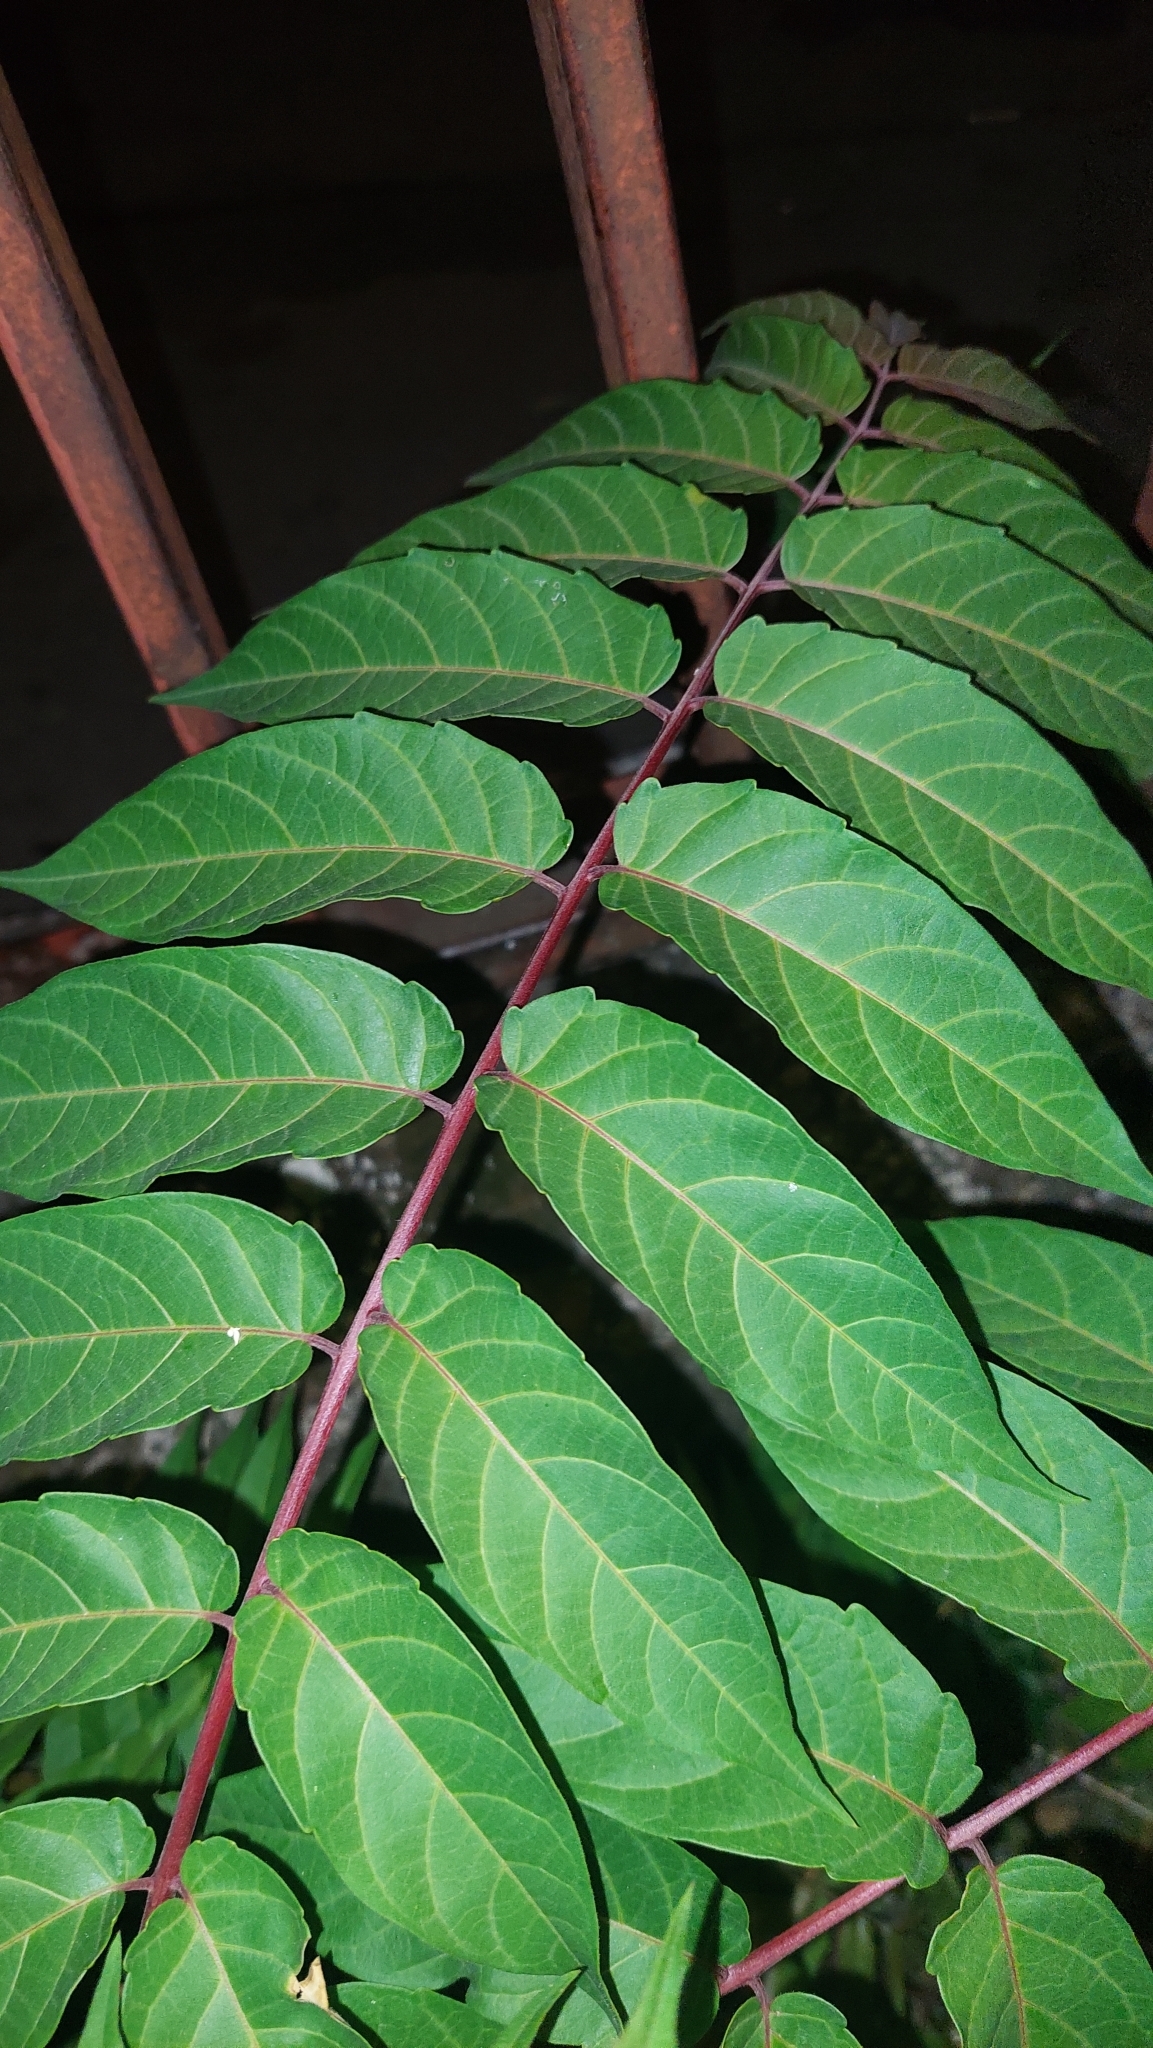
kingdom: Plantae
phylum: Tracheophyta
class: Magnoliopsida
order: Sapindales
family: Simaroubaceae
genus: Ailanthus
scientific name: Ailanthus altissima
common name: Tree-of-heaven
